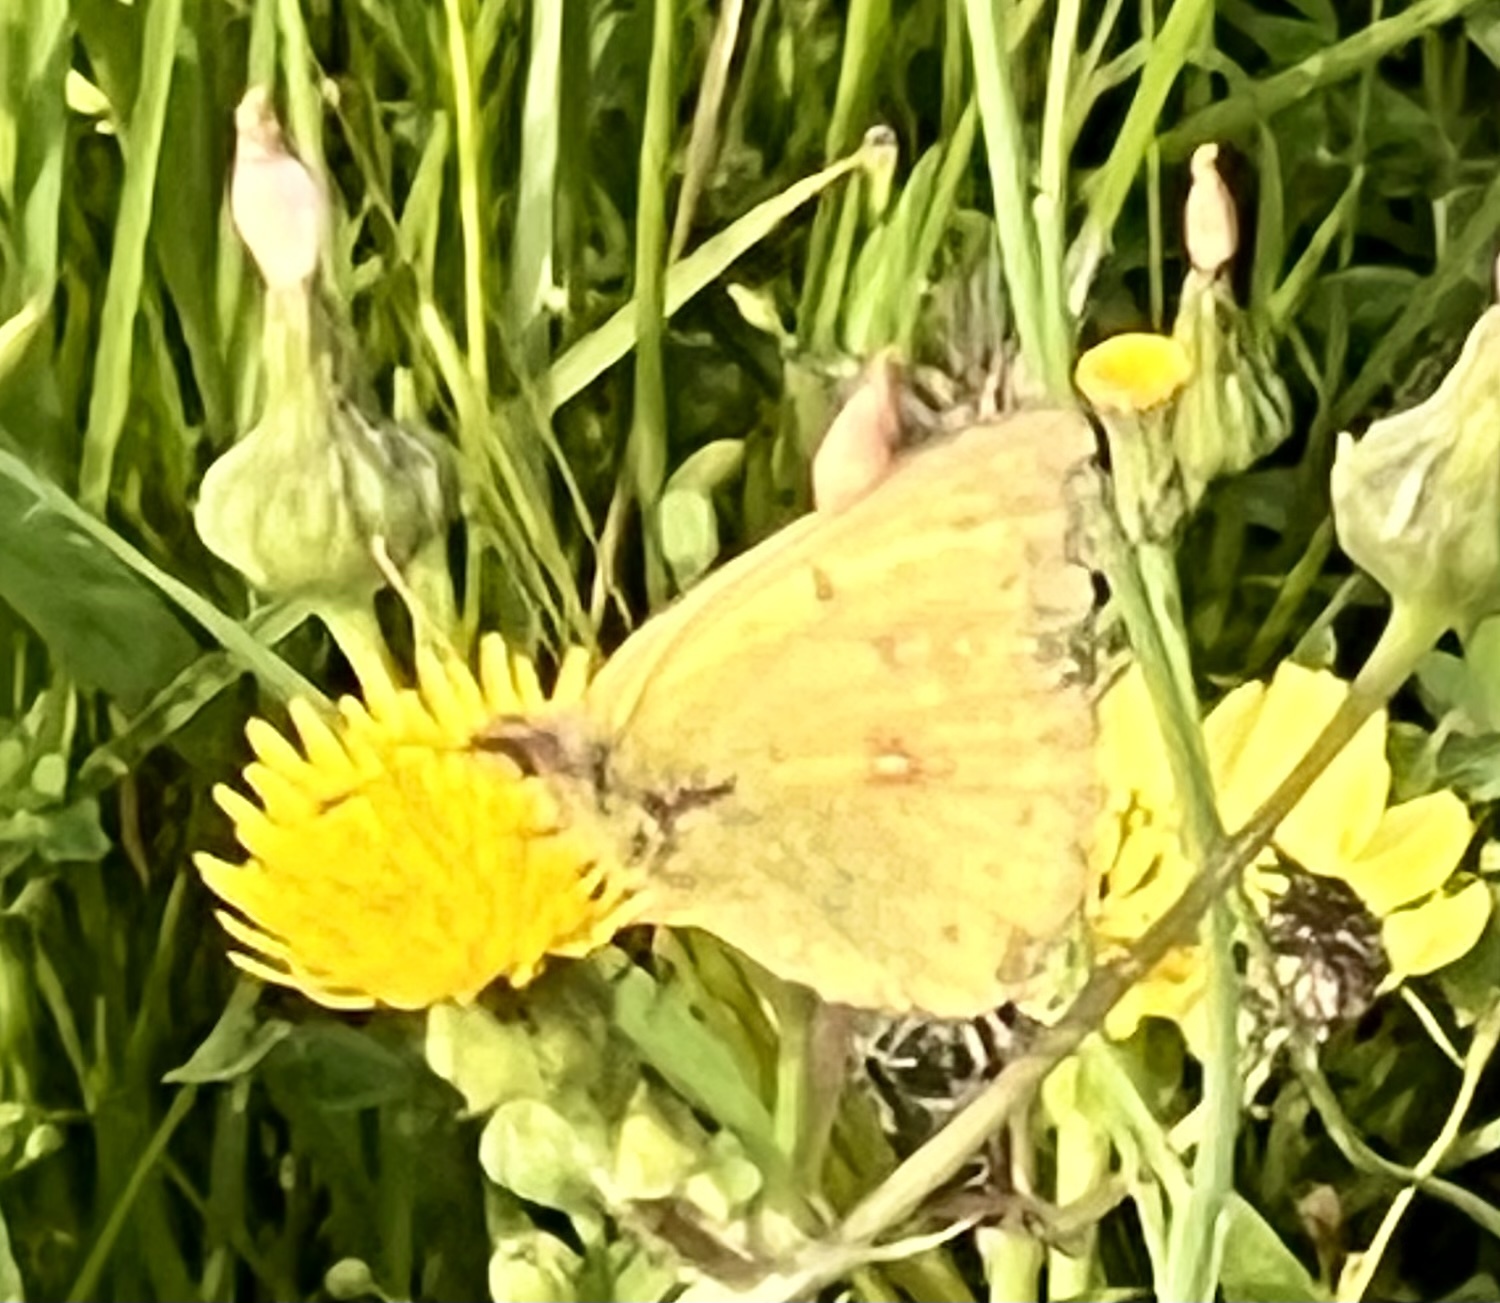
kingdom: Animalia
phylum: Arthropoda
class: Insecta
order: Lepidoptera
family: Pieridae
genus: Colias
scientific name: Colias eurytheme
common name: Alfalfa butterfly
